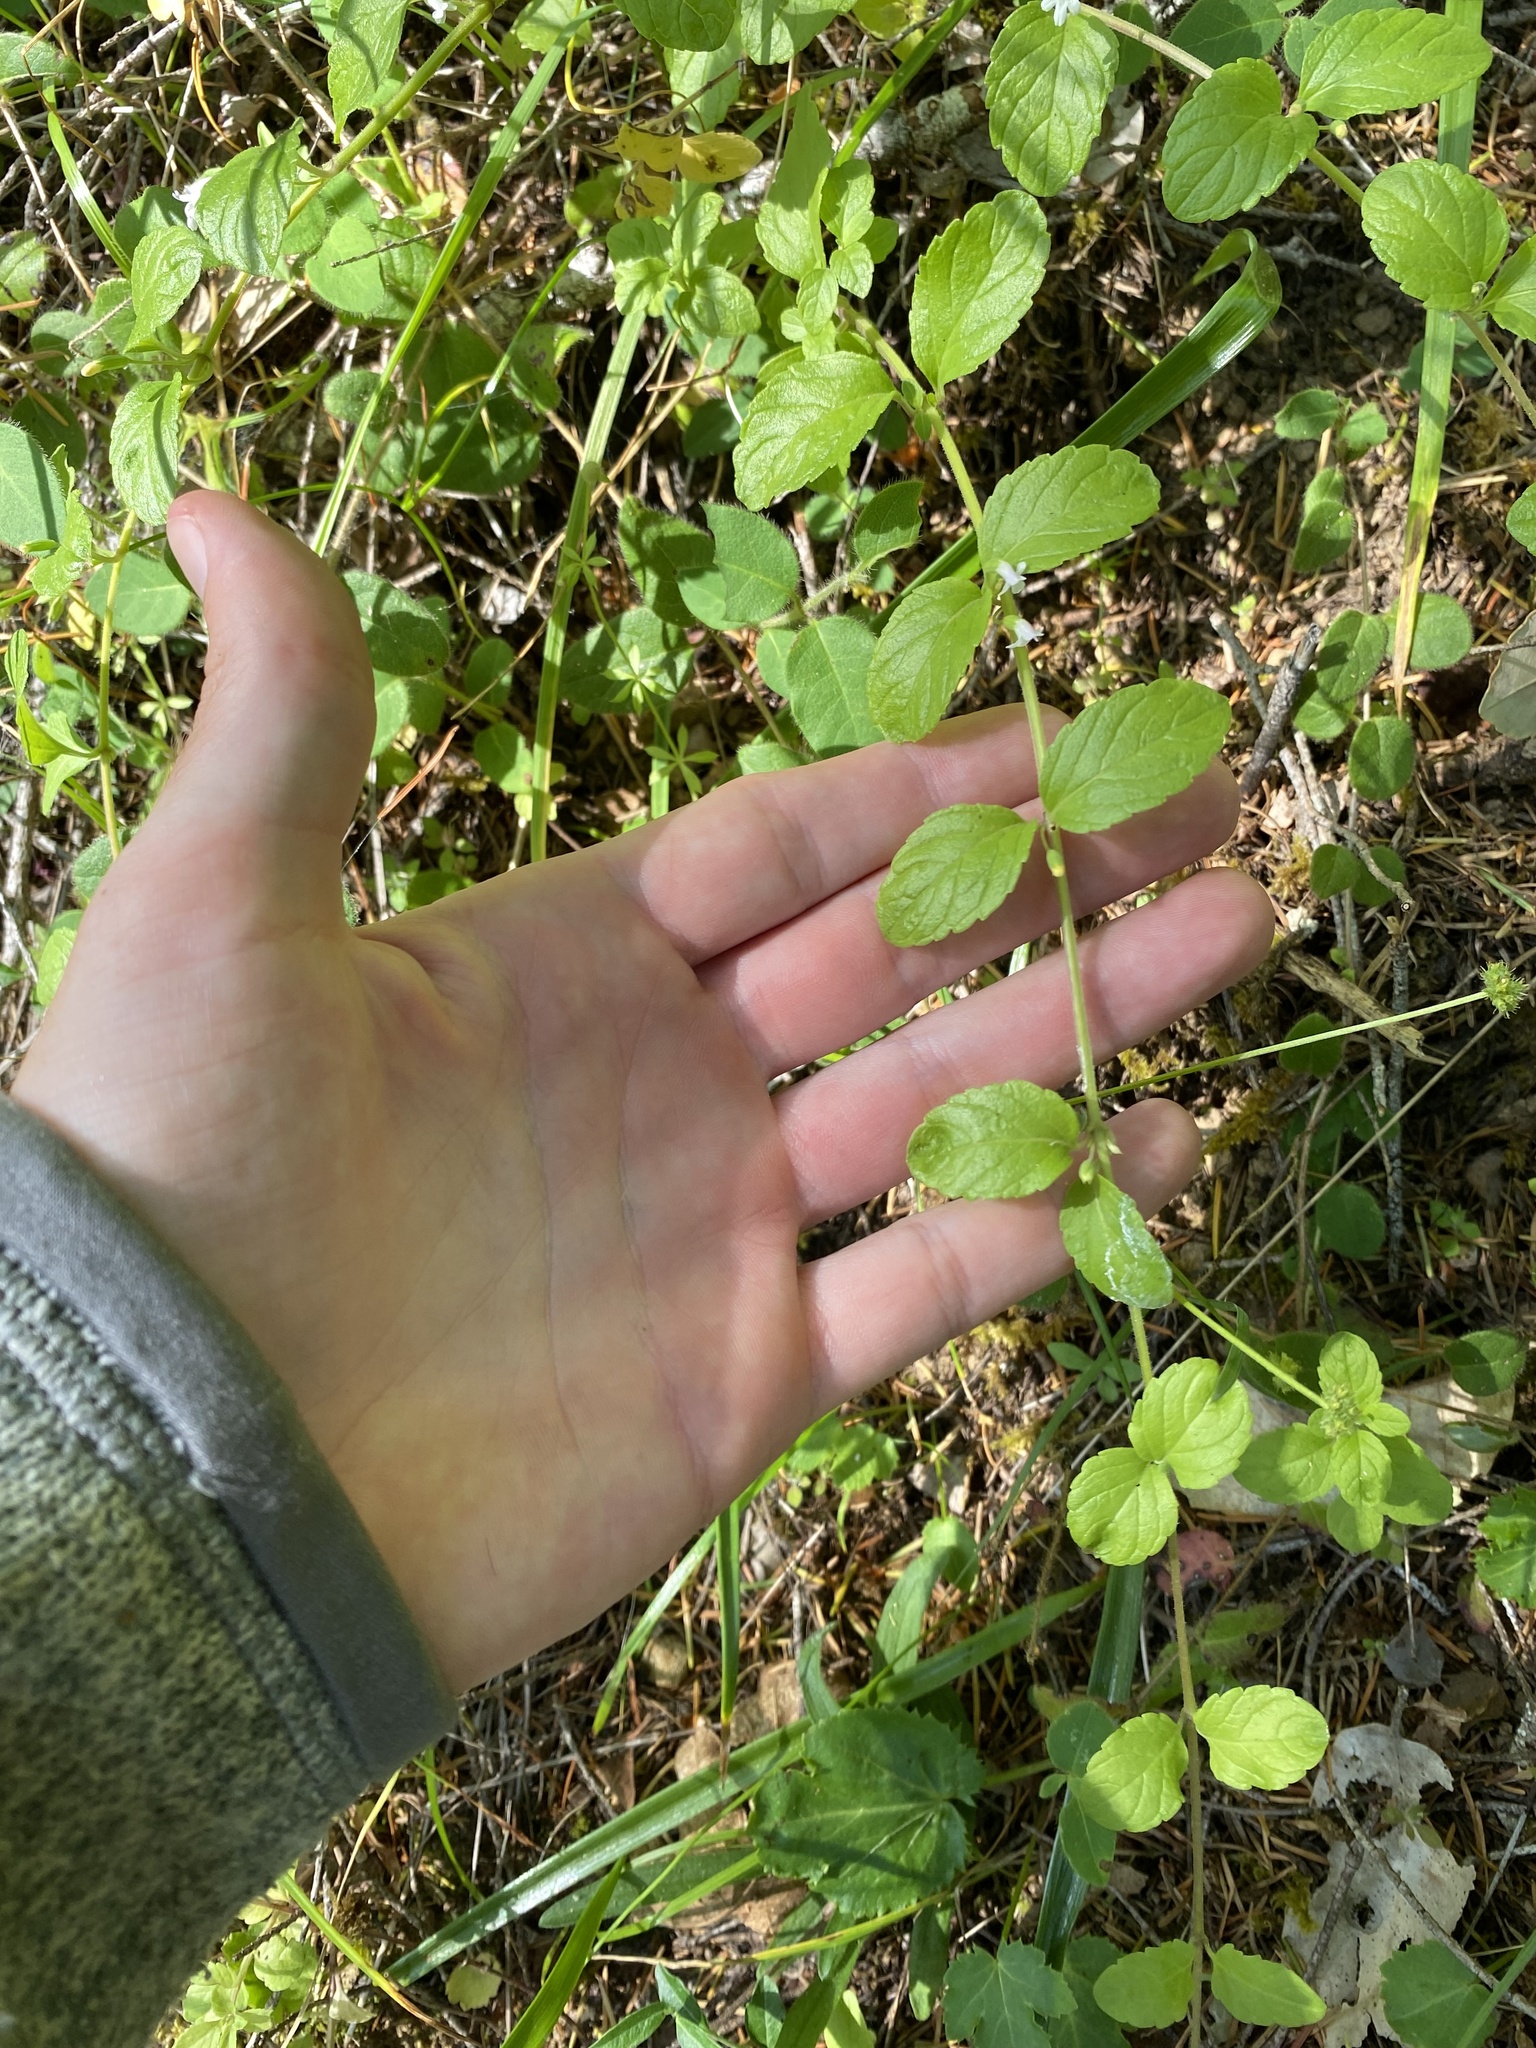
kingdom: Plantae
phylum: Tracheophyta
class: Magnoliopsida
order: Lamiales
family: Lamiaceae
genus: Micromeria
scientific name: Micromeria douglasii
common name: Yerba buena
